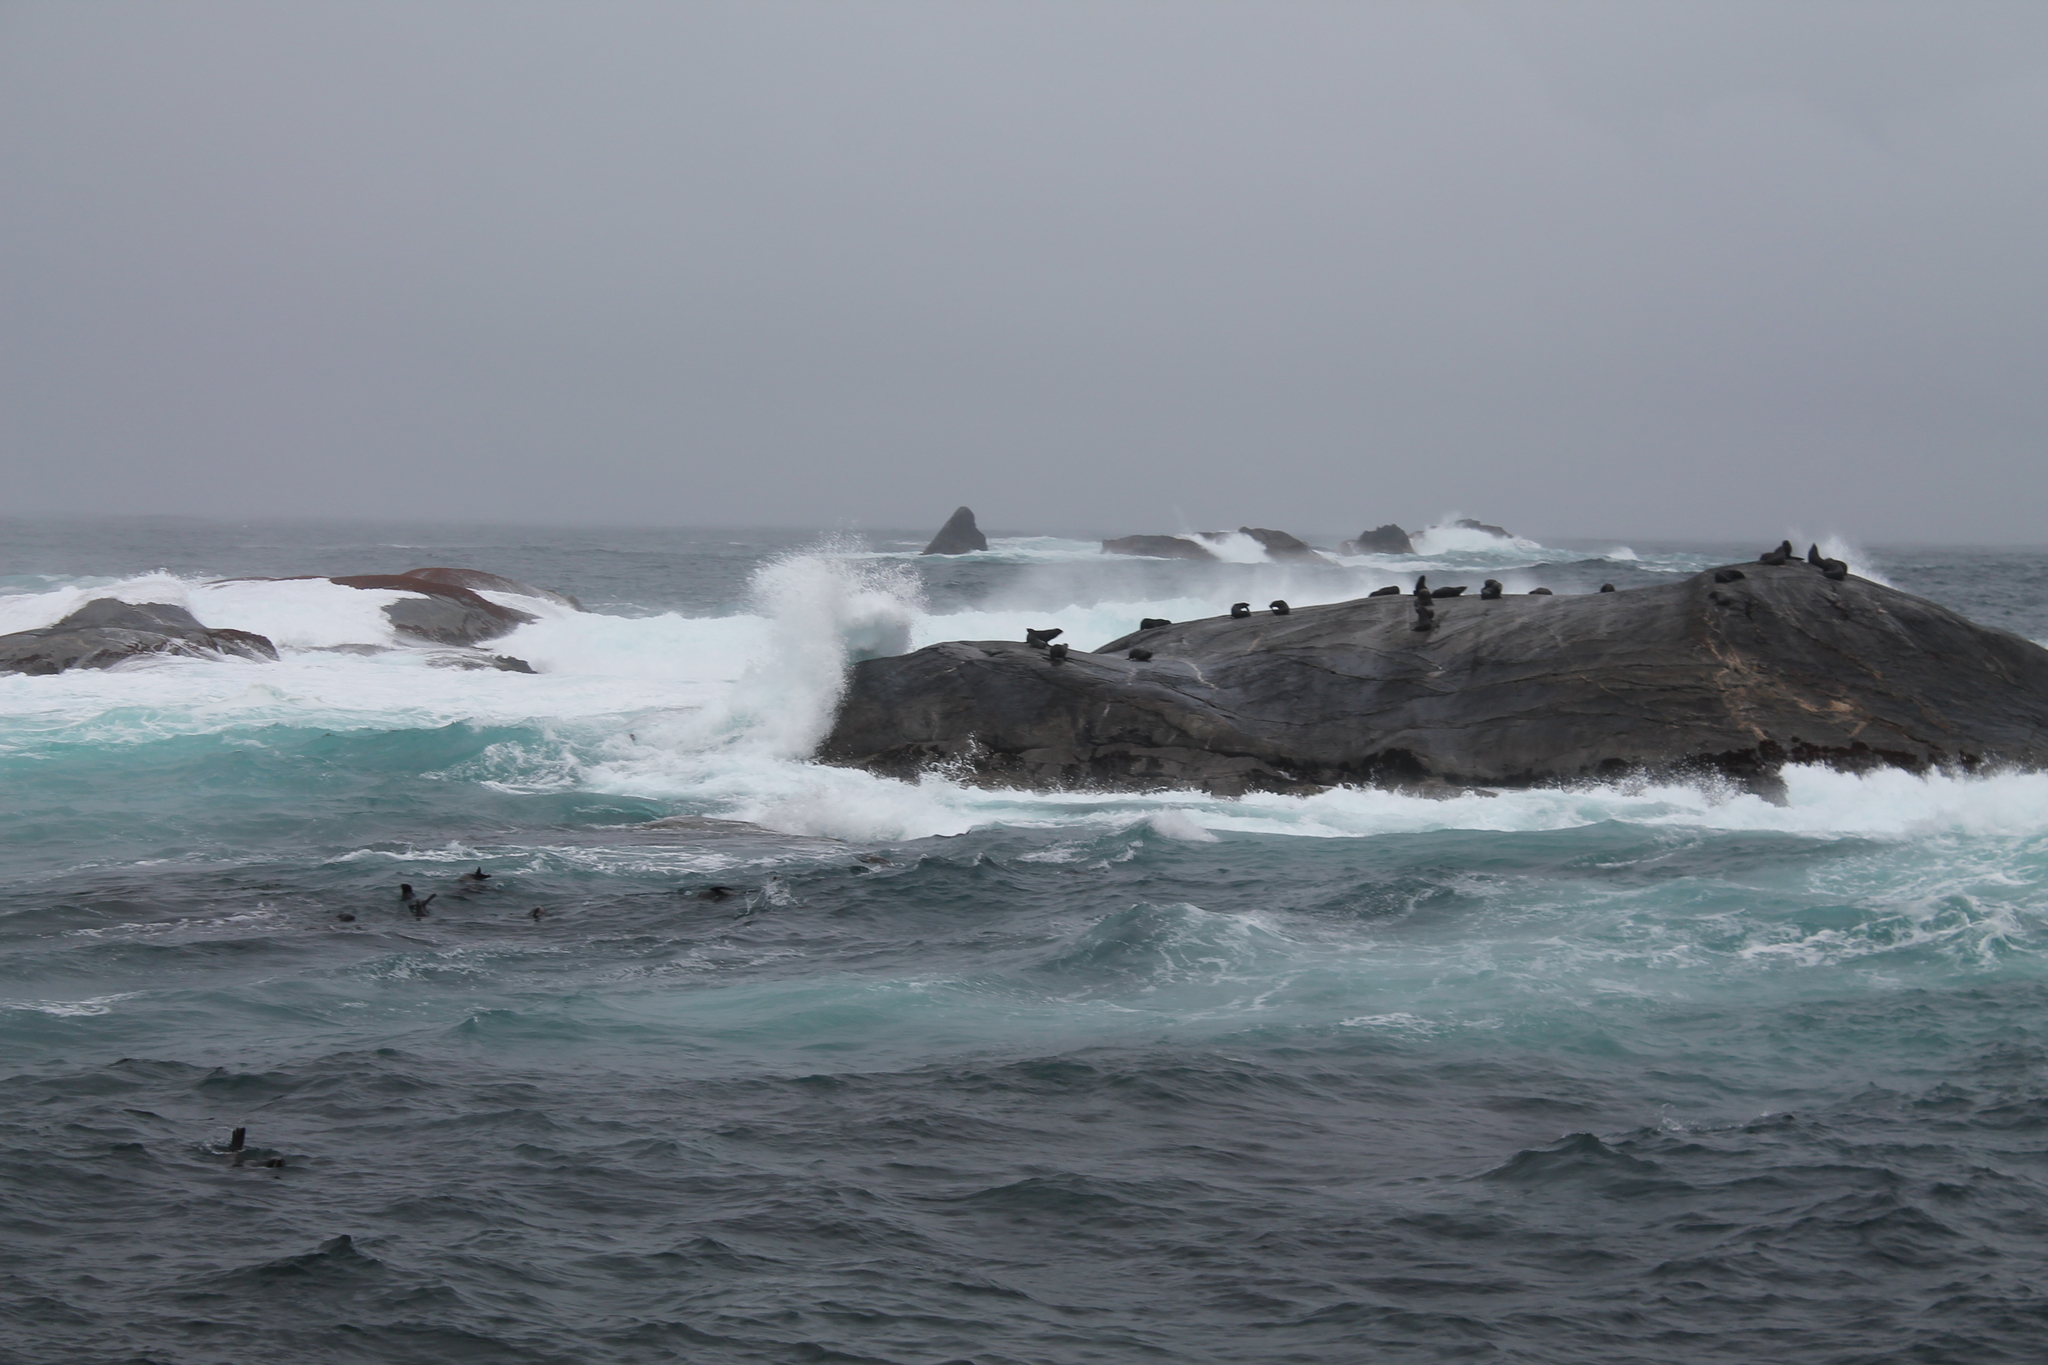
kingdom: Animalia
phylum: Chordata
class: Mammalia
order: Carnivora
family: Otariidae
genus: Arctocephalus
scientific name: Arctocephalus forsteri
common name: New zealand fur seal
